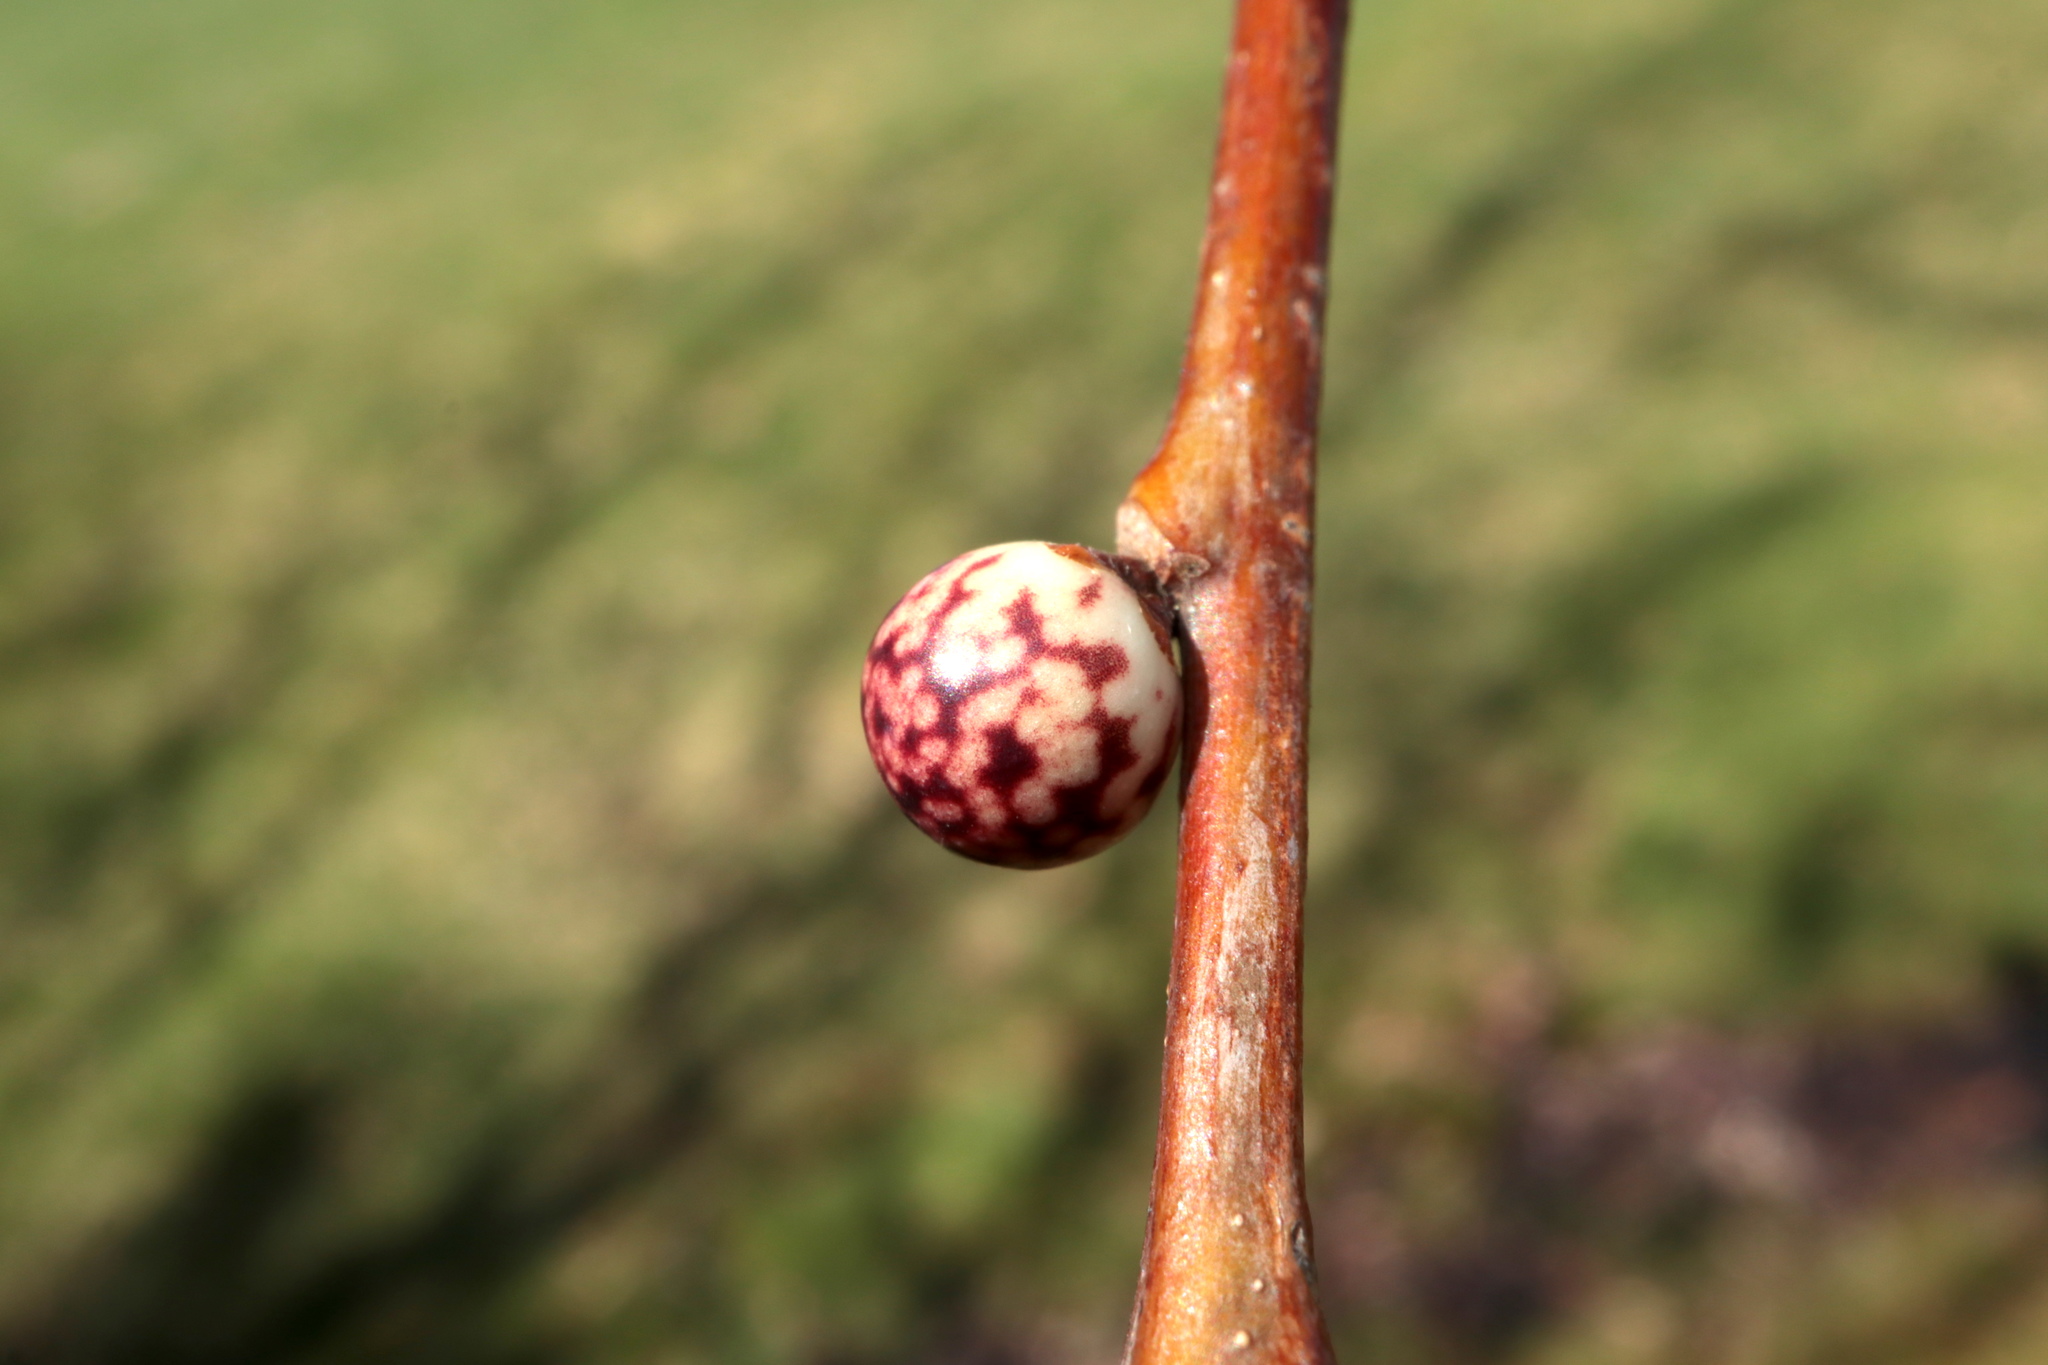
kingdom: Animalia
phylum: Arthropoda
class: Insecta
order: Hymenoptera
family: Cynipidae
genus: Andricus
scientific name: Andricus
